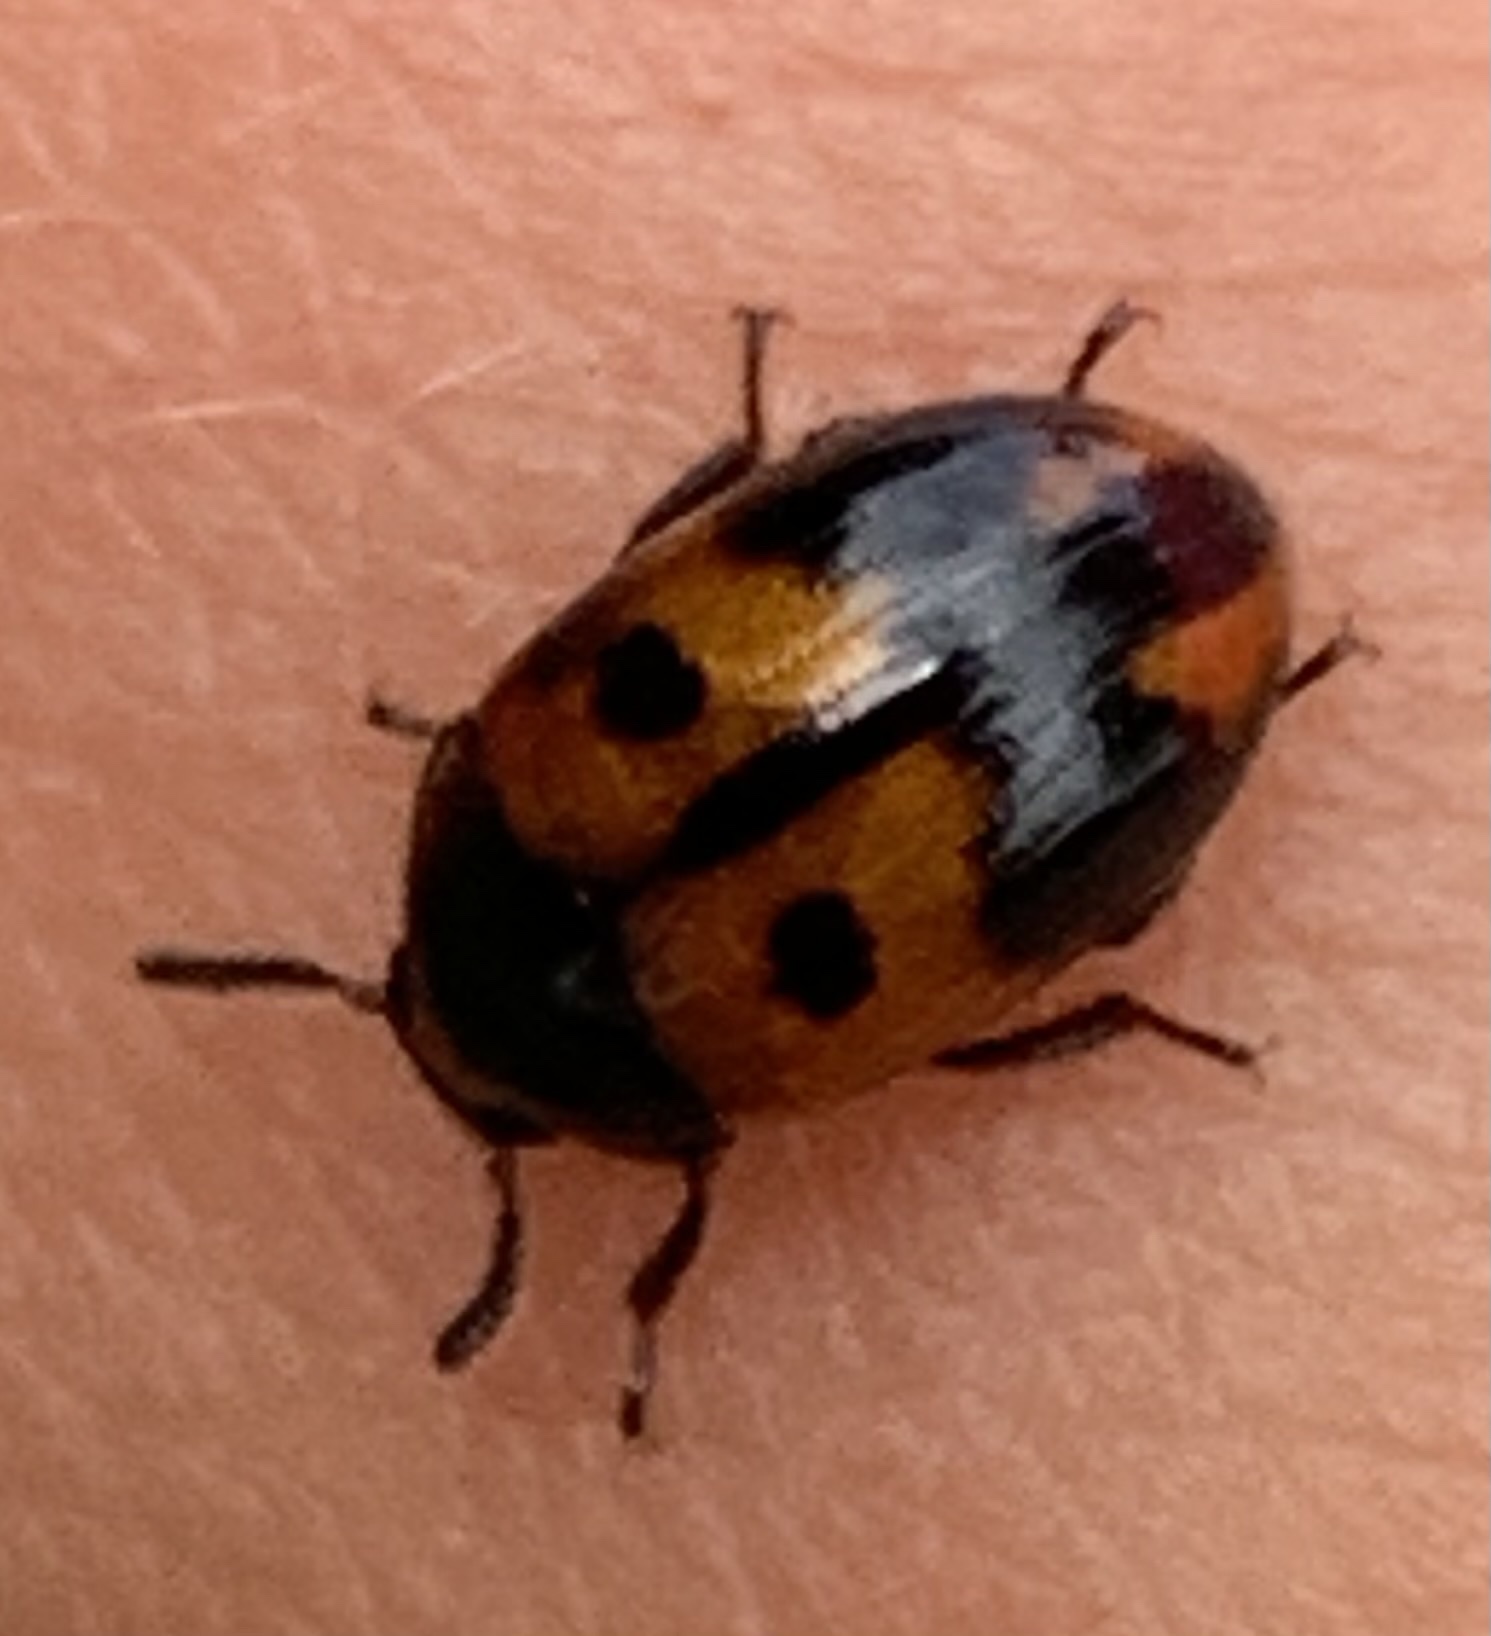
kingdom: Animalia
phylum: Arthropoda
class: Insecta
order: Coleoptera
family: Tenebrionidae
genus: Diaperis
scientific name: Diaperis maculata
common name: Darkling beetle
